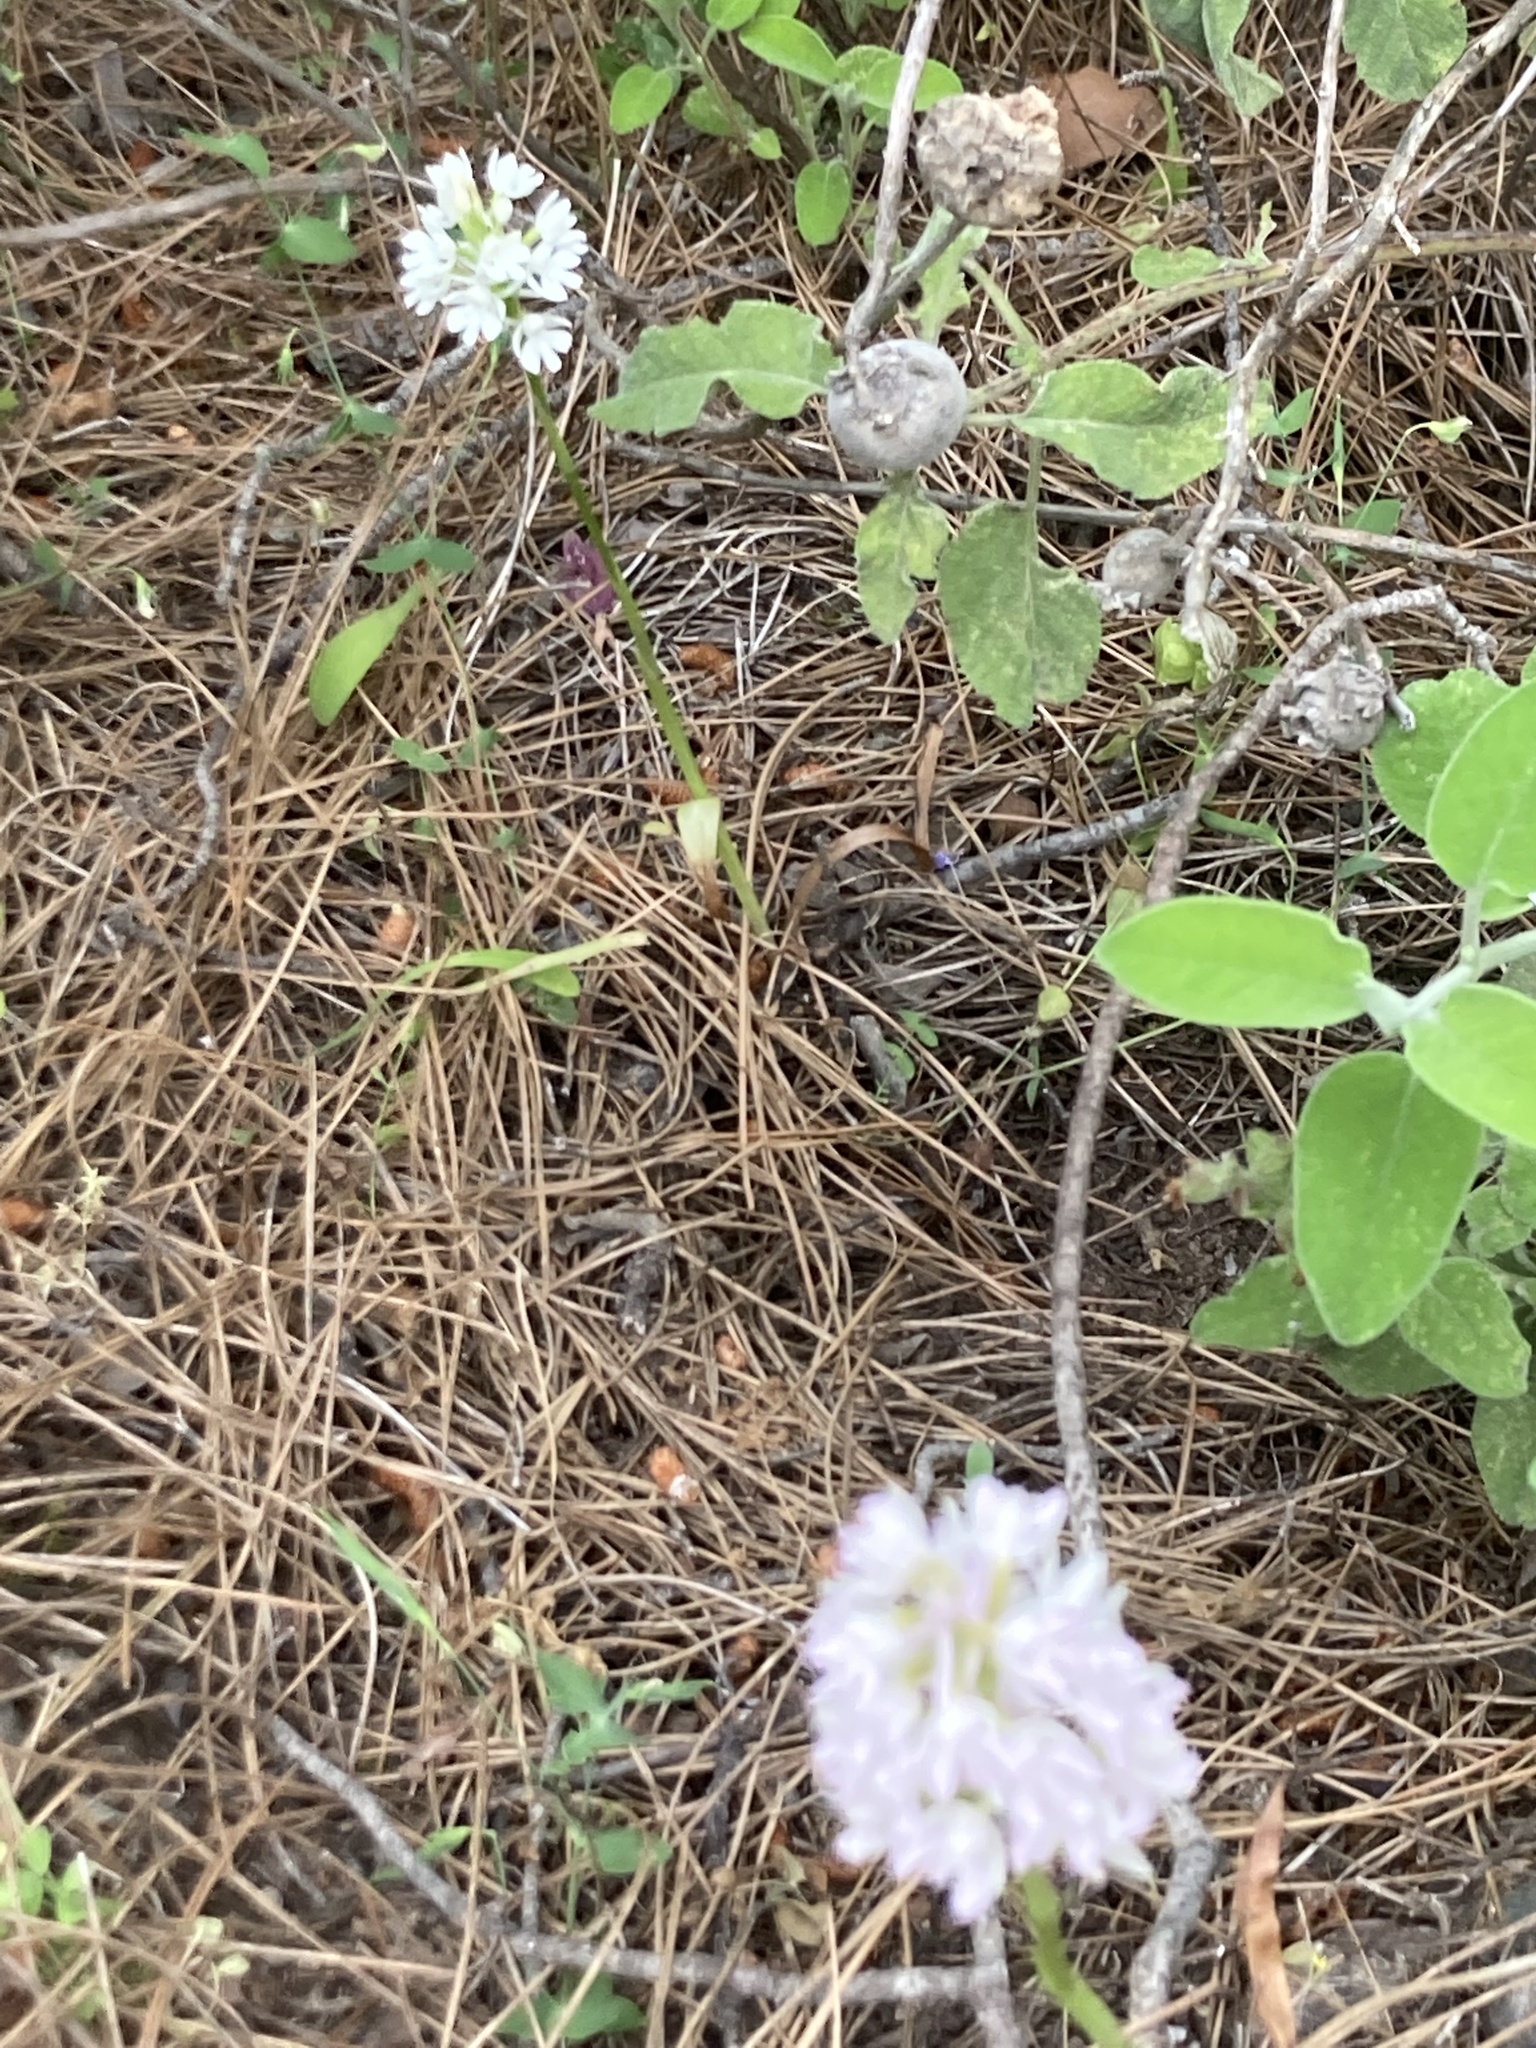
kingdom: Plantae
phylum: Tracheophyta
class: Liliopsida
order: Asparagales
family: Orchidaceae
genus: Anacamptis
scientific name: Anacamptis pyramidalis
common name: Pyramidal orchid
